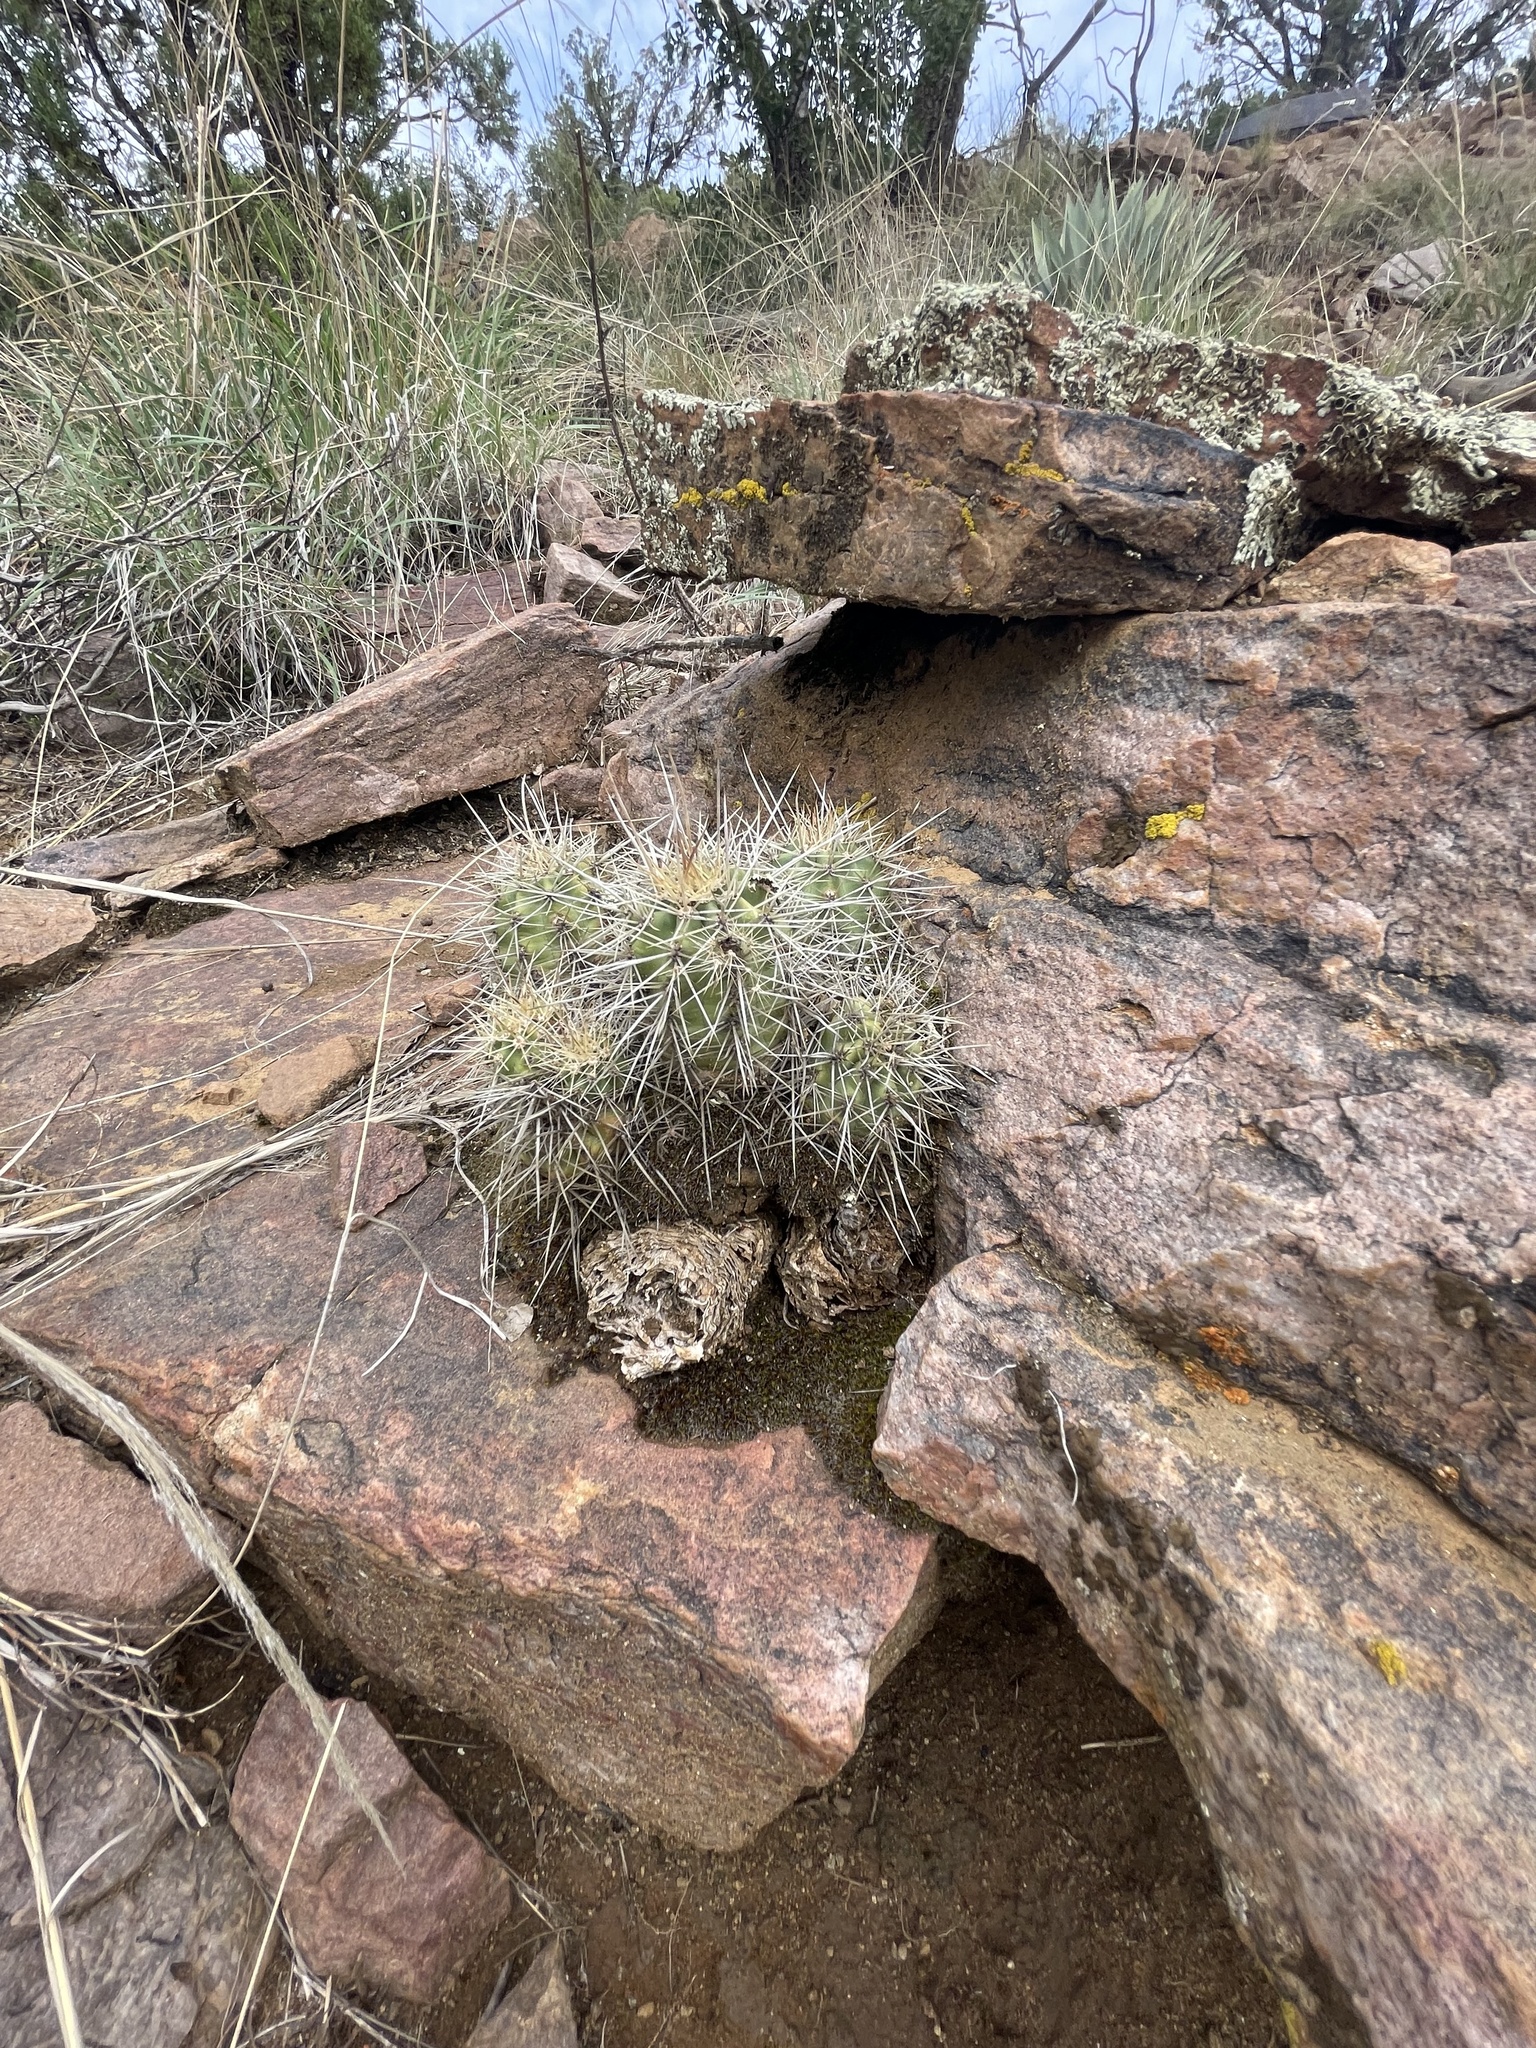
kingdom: Plantae
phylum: Tracheophyta
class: Magnoliopsida
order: Caryophyllales
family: Cactaceae
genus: Echinocereus
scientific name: Echinocereus bakeri
